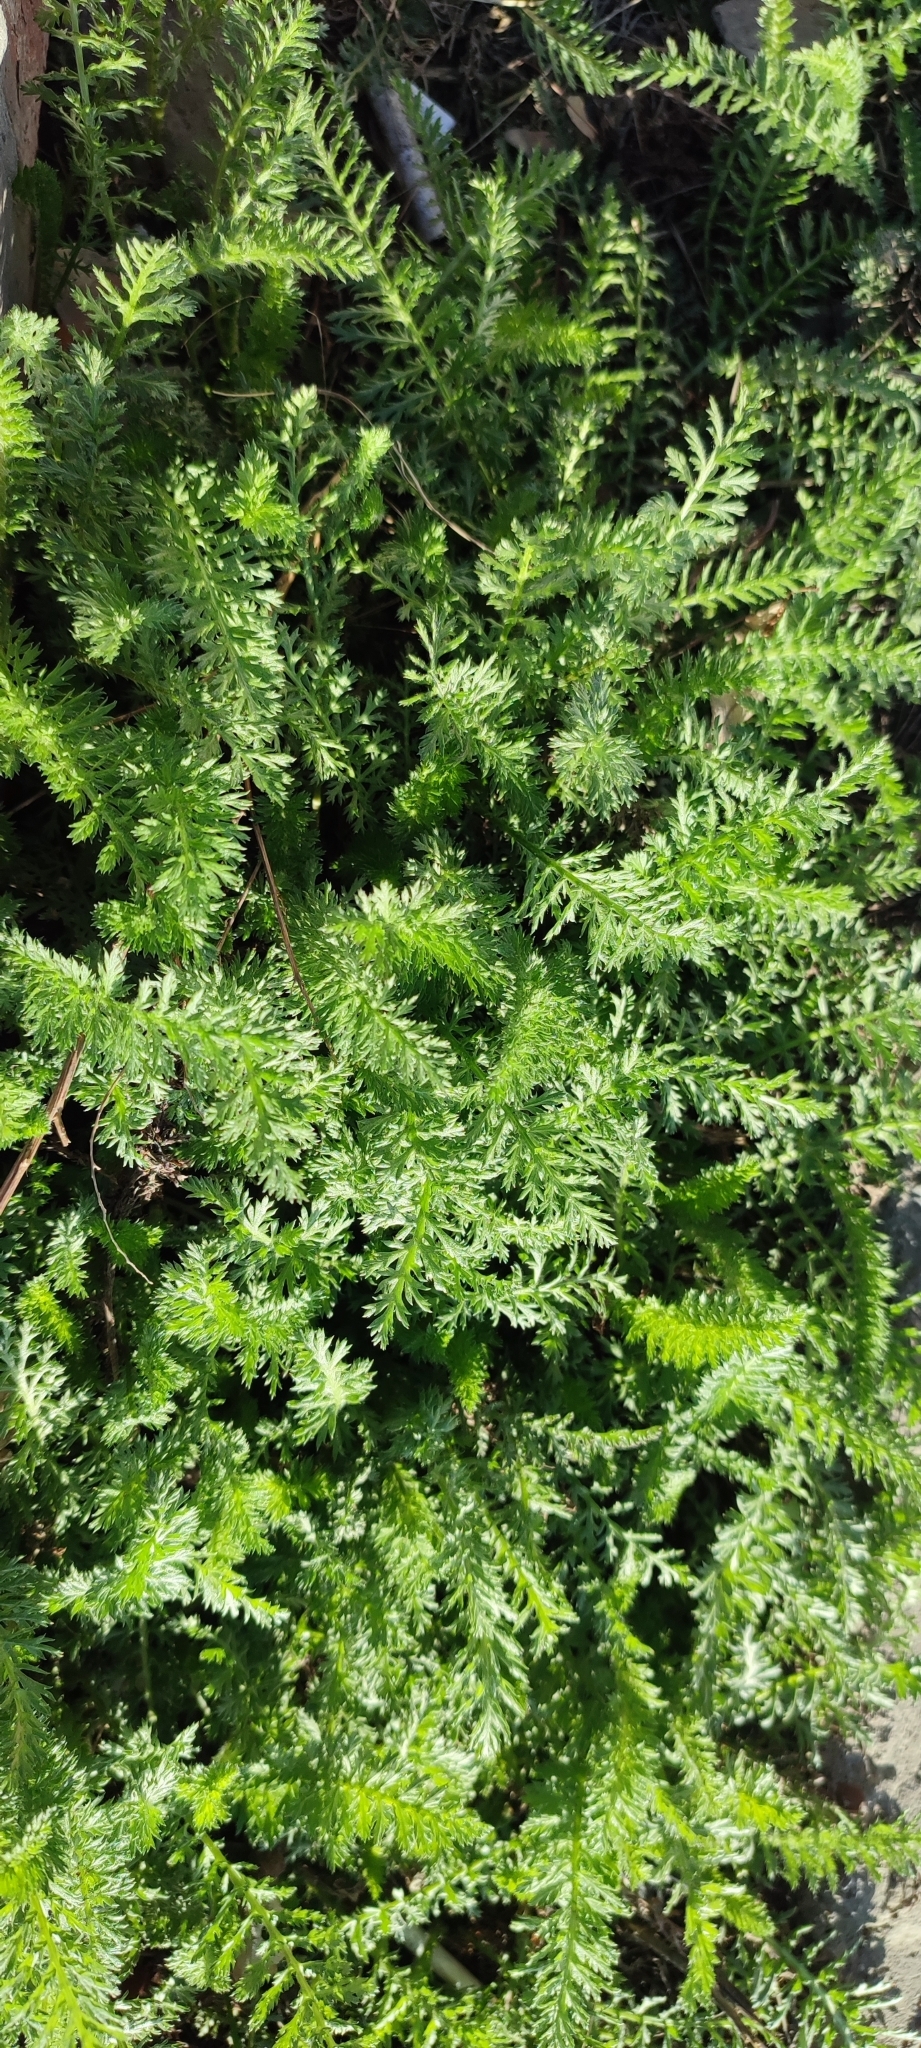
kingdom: Plantae
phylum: Tracheophyta
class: Magnoliopsida
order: Asterales
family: Asteraceae
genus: Achillea
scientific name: Achillea millefolium
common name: Yarrow
